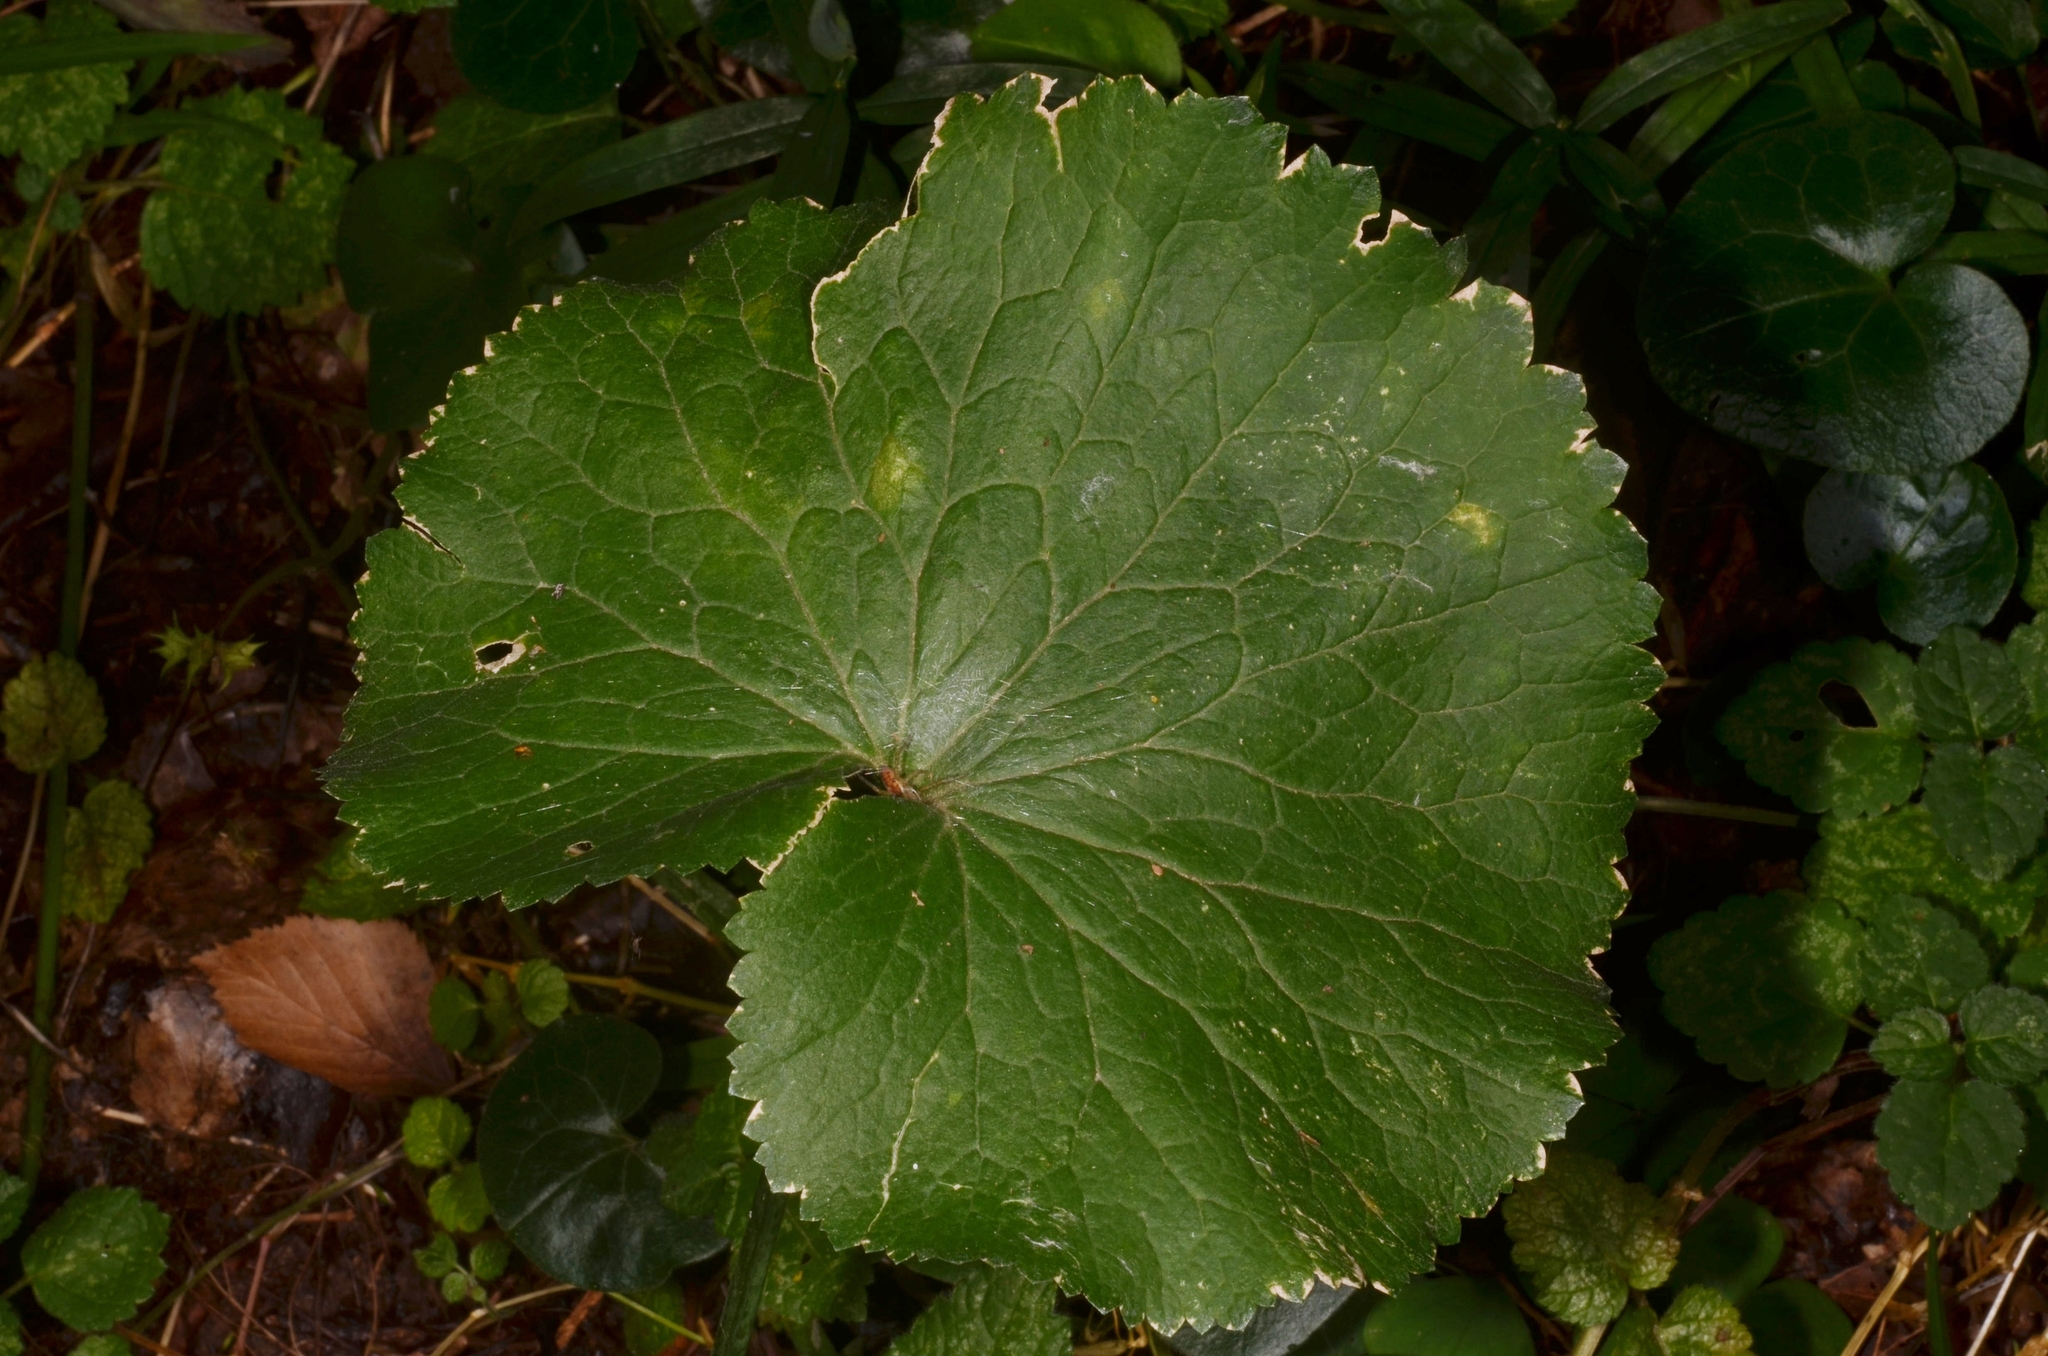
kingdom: Plantae
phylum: Tracheophyta
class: Magnoliopsida
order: Ranunculales
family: Ranunculaceae
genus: Ranunculus
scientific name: Ranunculus cassubicus
